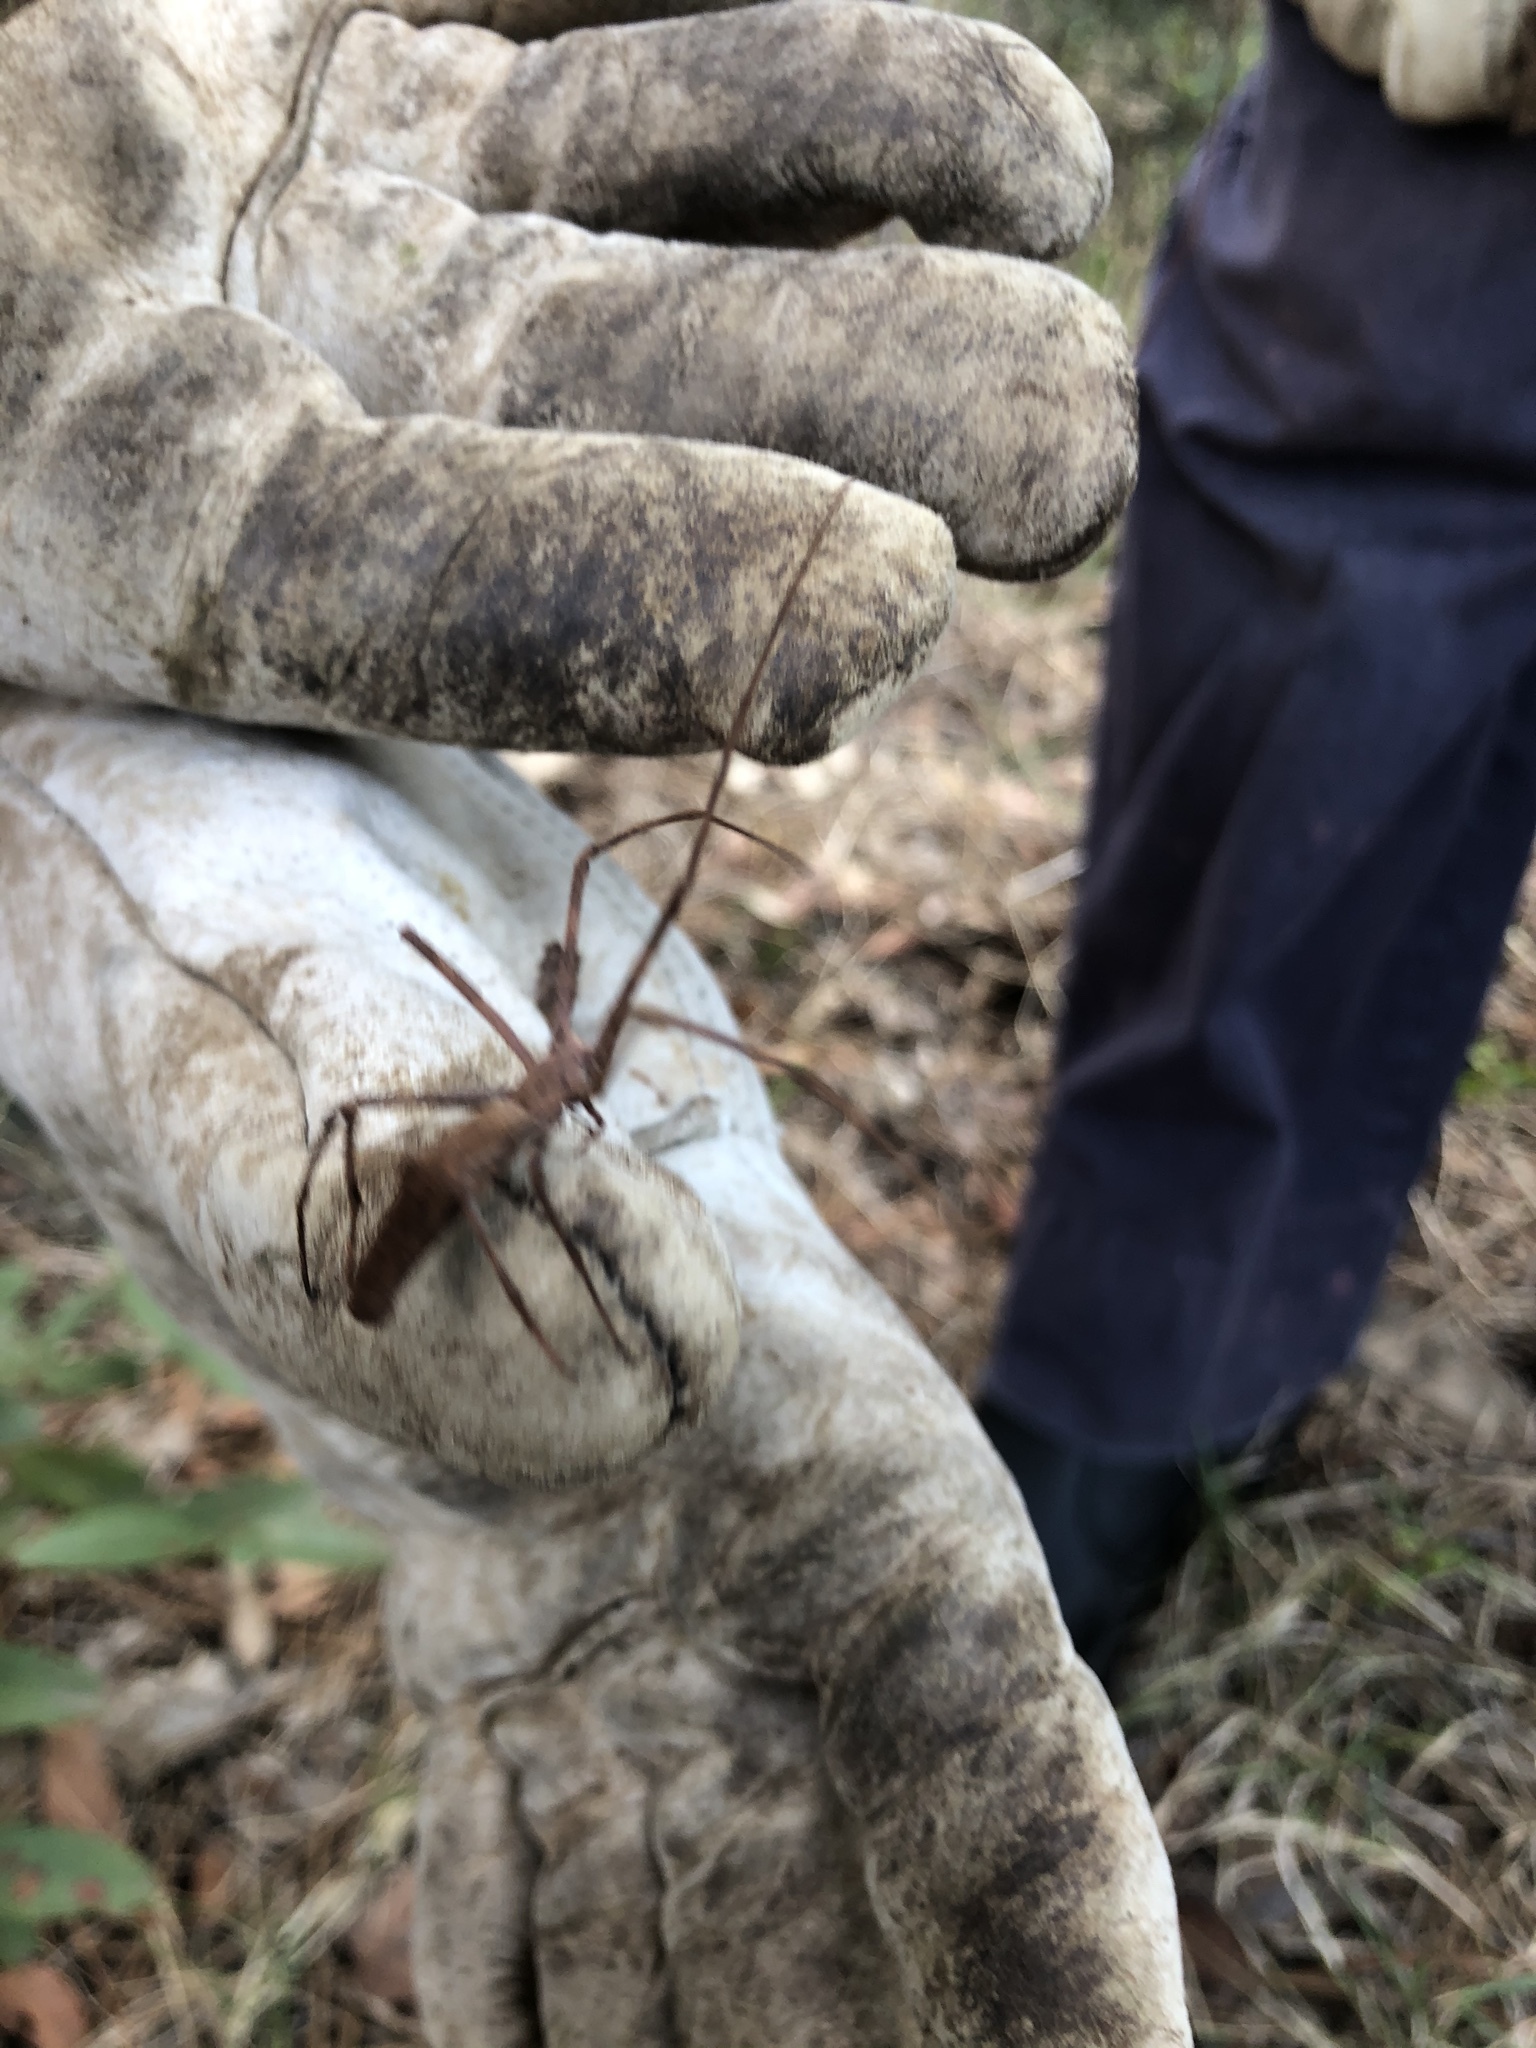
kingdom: Animalia
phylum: Arthropoda
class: Arachnida
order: Araneae
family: Deinopidae
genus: Deinopis
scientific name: Deinopis subrufa
